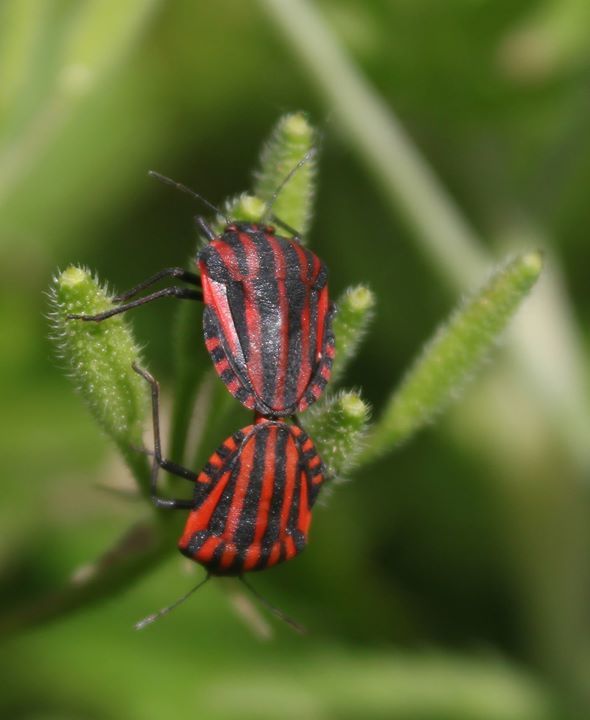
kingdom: Animalia
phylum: Arthropoda
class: Insecta
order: Hemiptera
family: Pentatomidae
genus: Graphosoma
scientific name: Graphosoma italicum
